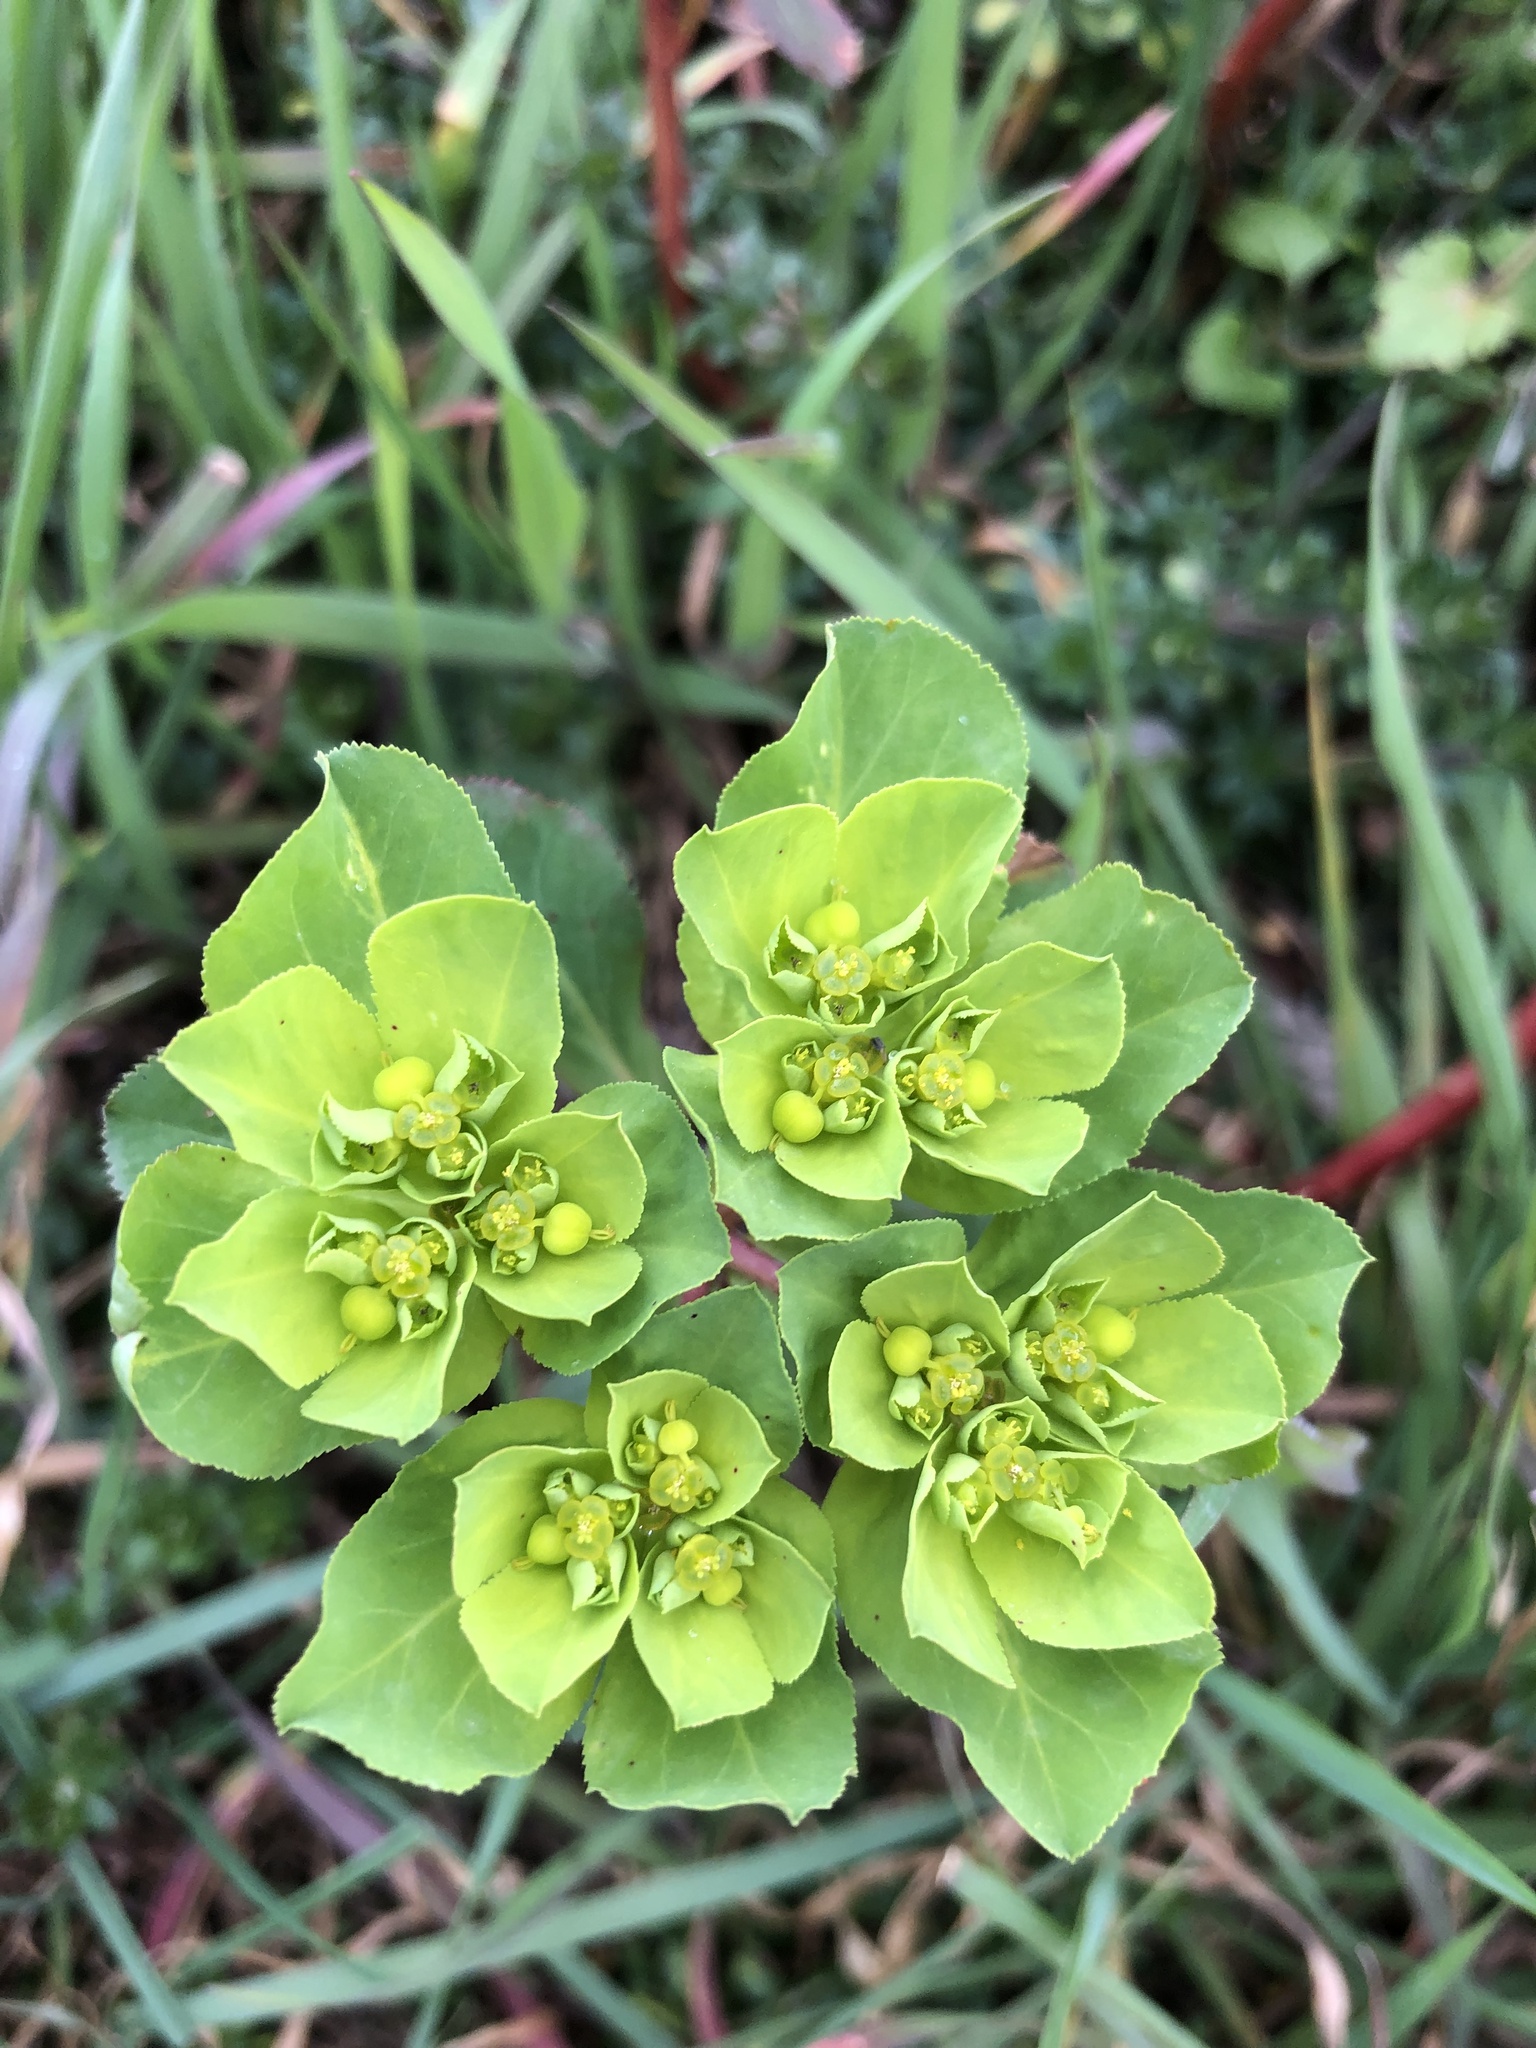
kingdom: Plantae
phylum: Tracheophyta
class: Magnoliopsida
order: Malpighiales
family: Euphorbiaceae
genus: Euphorbia
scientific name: Euphorbia helioscopia
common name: Sun spurge
